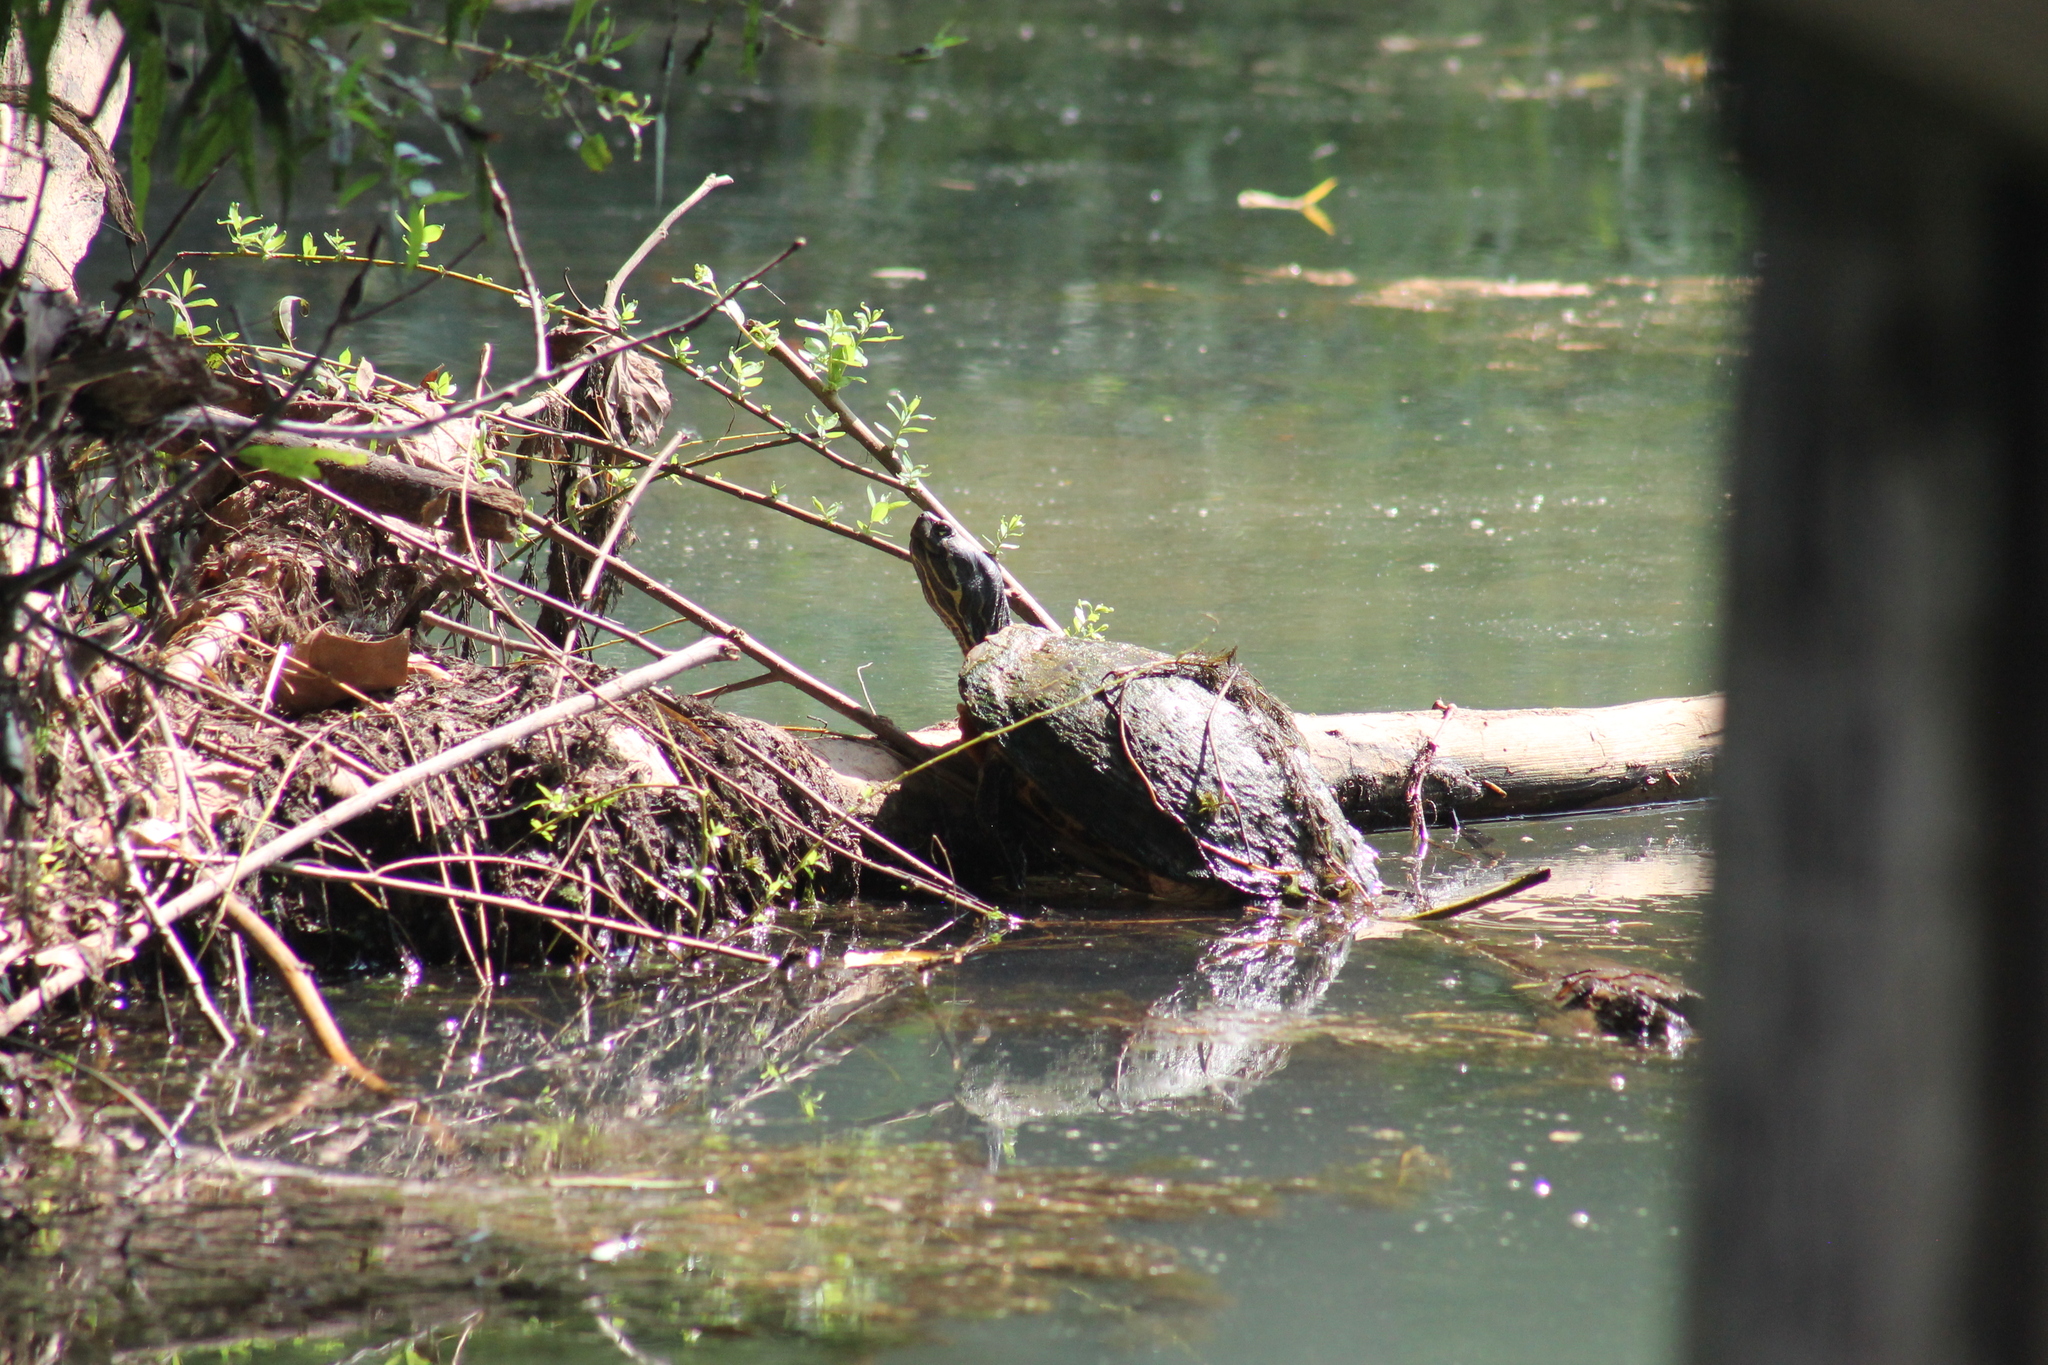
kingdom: Animalia
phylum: Chordata
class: Testudines
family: Emydidae
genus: Trachemys
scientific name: Trachemys scripta
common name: Slider
